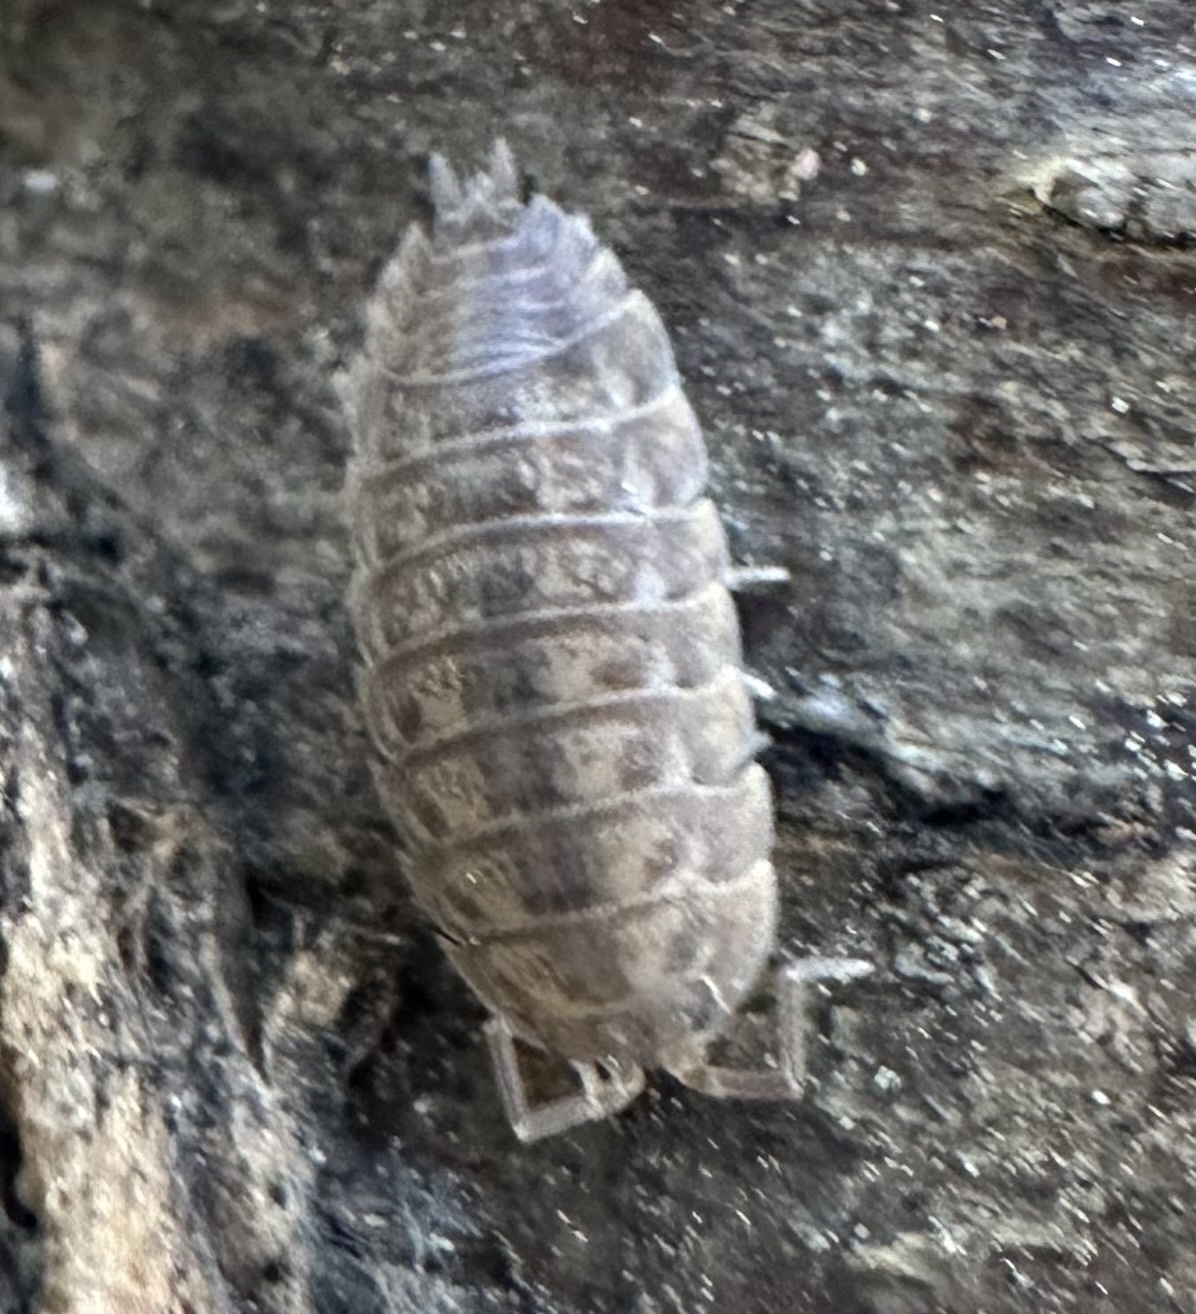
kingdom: Animalia
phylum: Arthropoda
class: Malacostraca
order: Isopoda
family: Trachelipodidae
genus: Trachelipus
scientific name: Trachelipus rathkii
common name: Isopod
